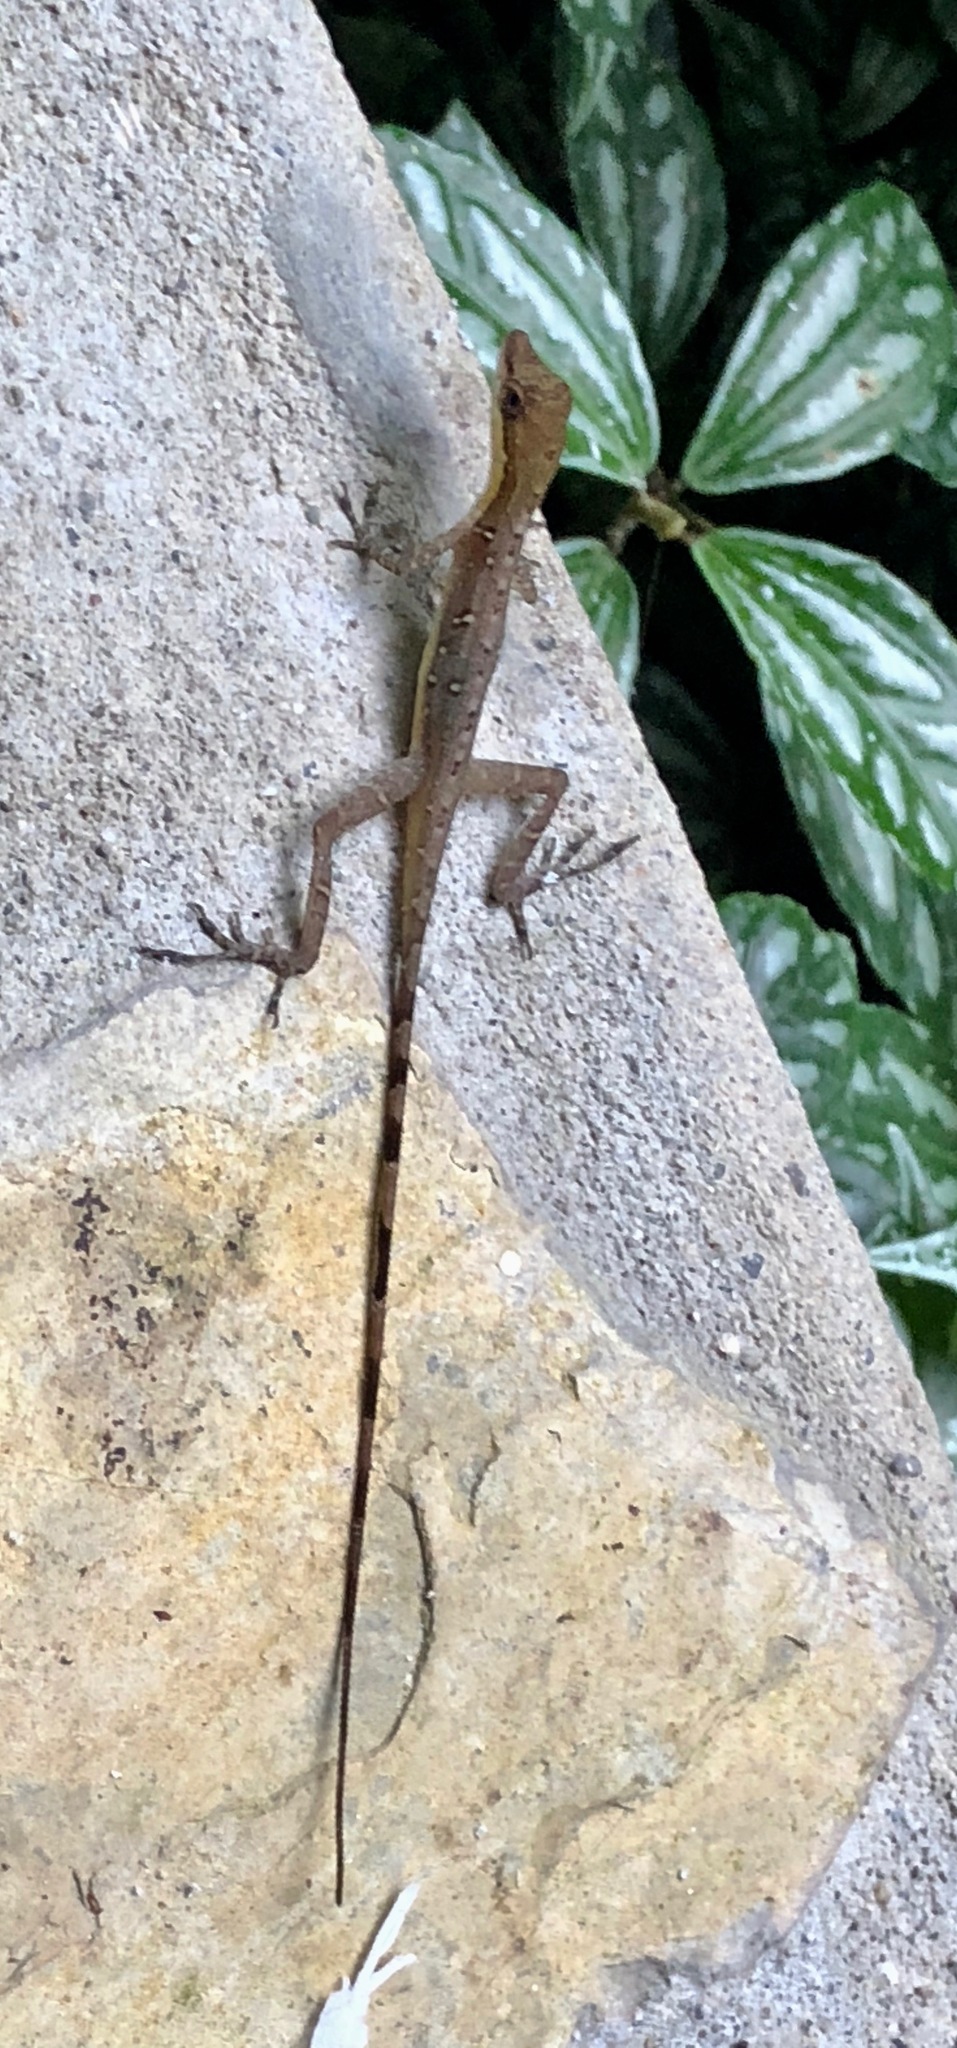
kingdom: Animalia
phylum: Chordata
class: Squamata
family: Dactyloidae
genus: Anolis
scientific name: Anolis limifrons
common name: Border anole
